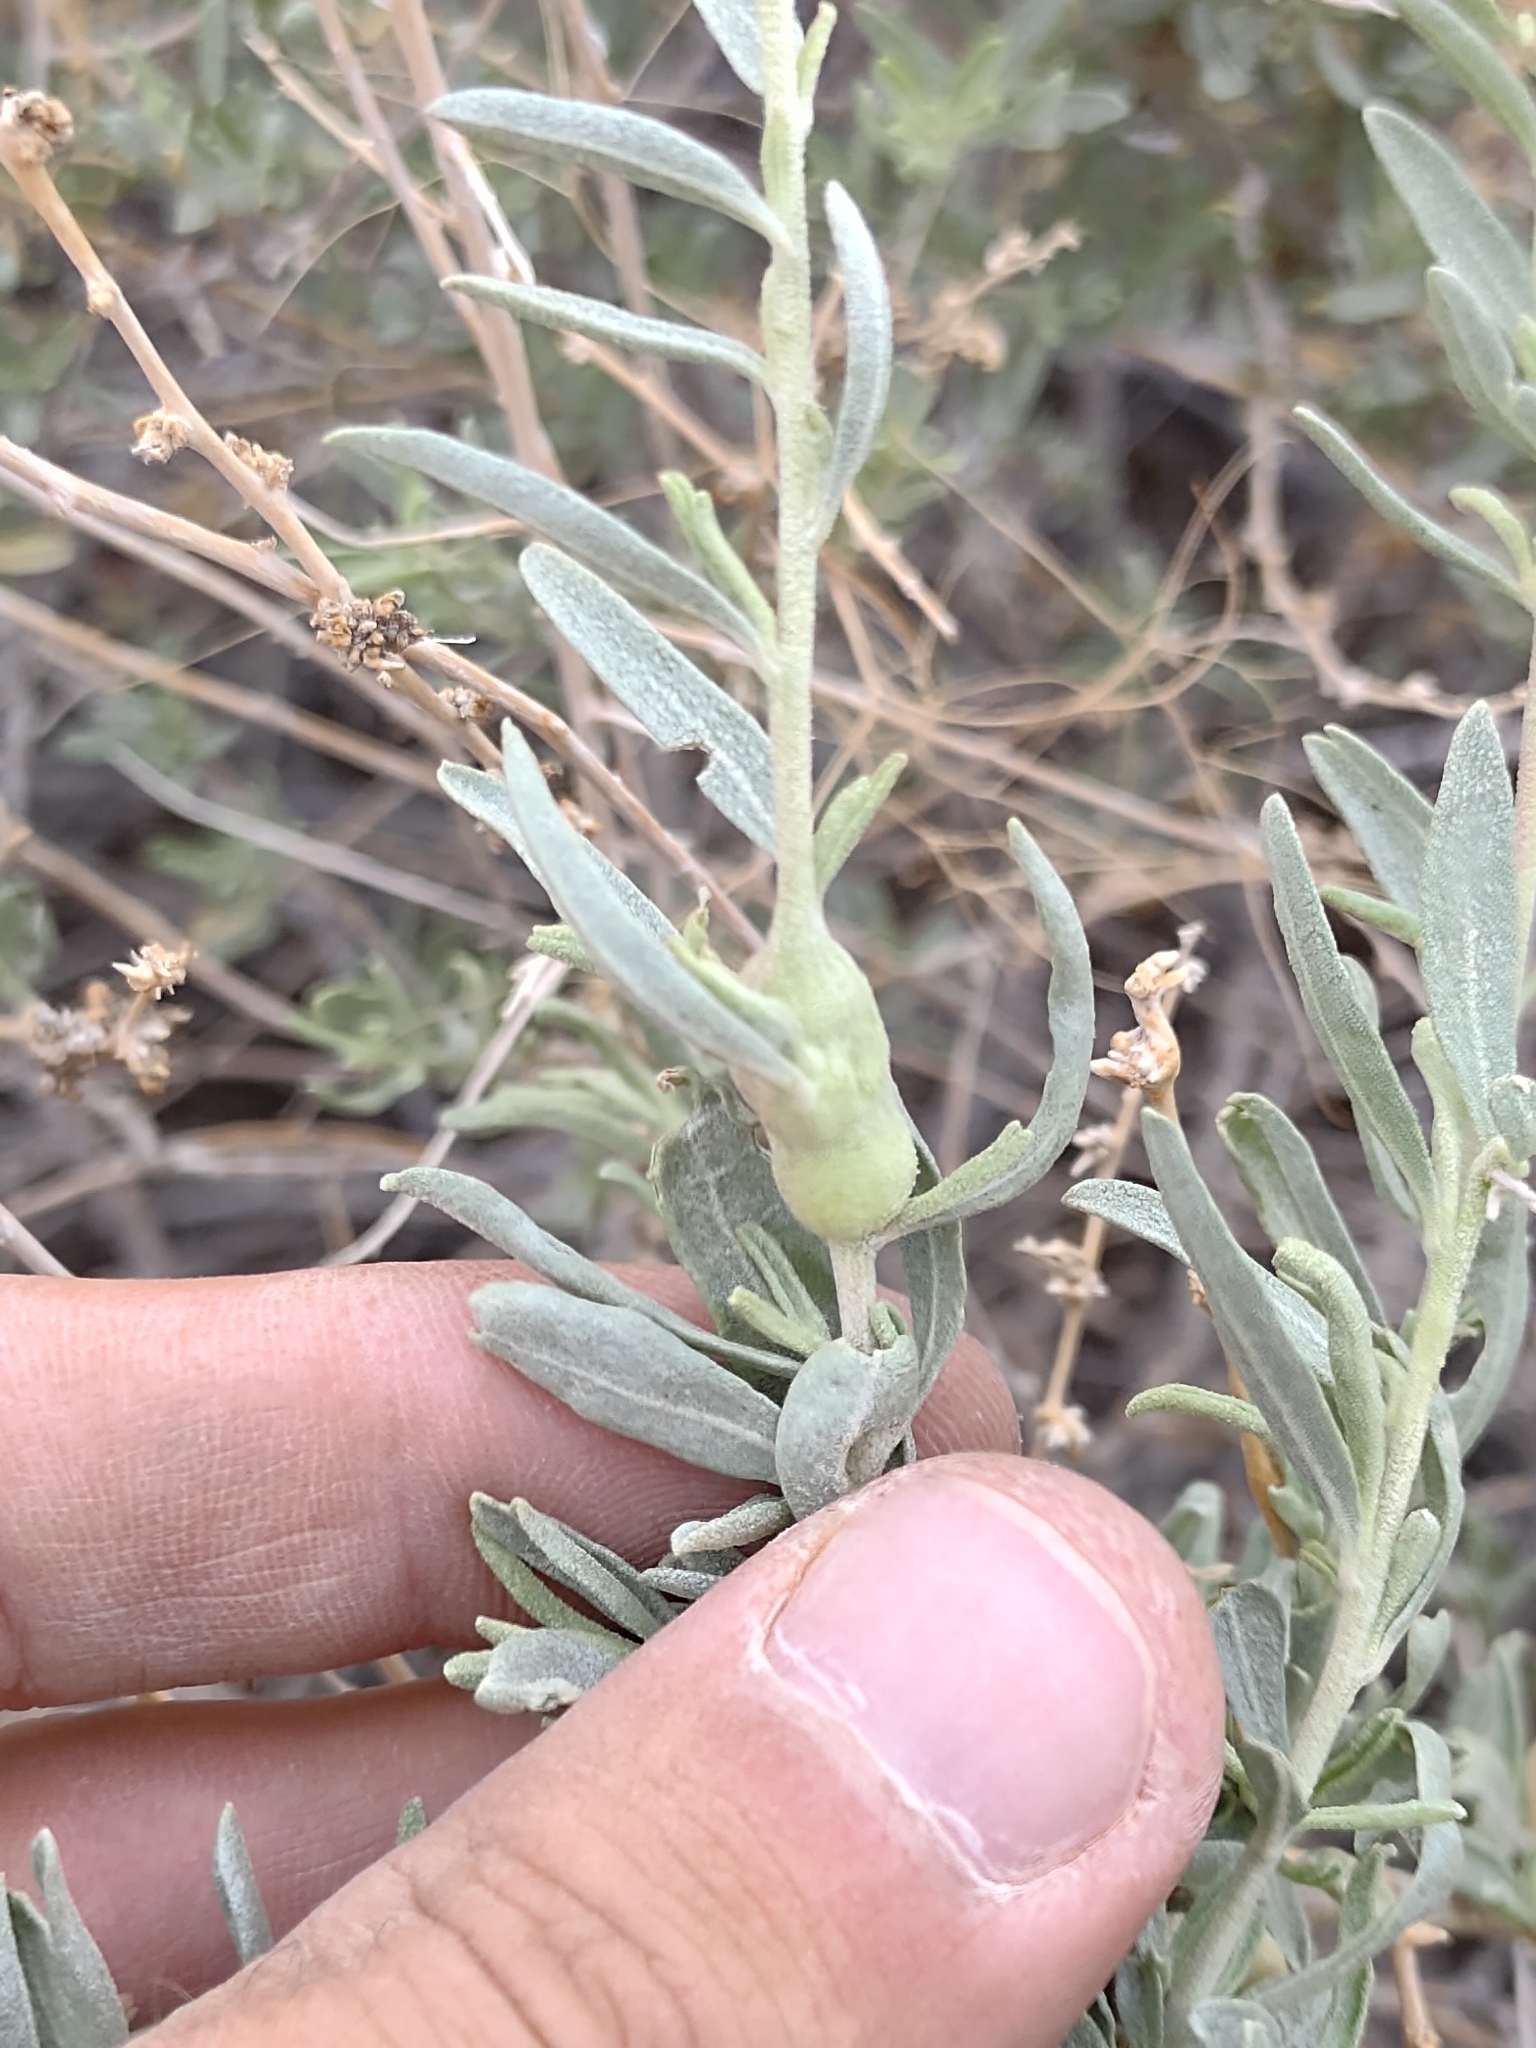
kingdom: Animalia
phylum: Arthropoda
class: Insecta
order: Diptera
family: Cecidomyiidae
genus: Asphondylia
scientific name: Asphondylia atriplicis
